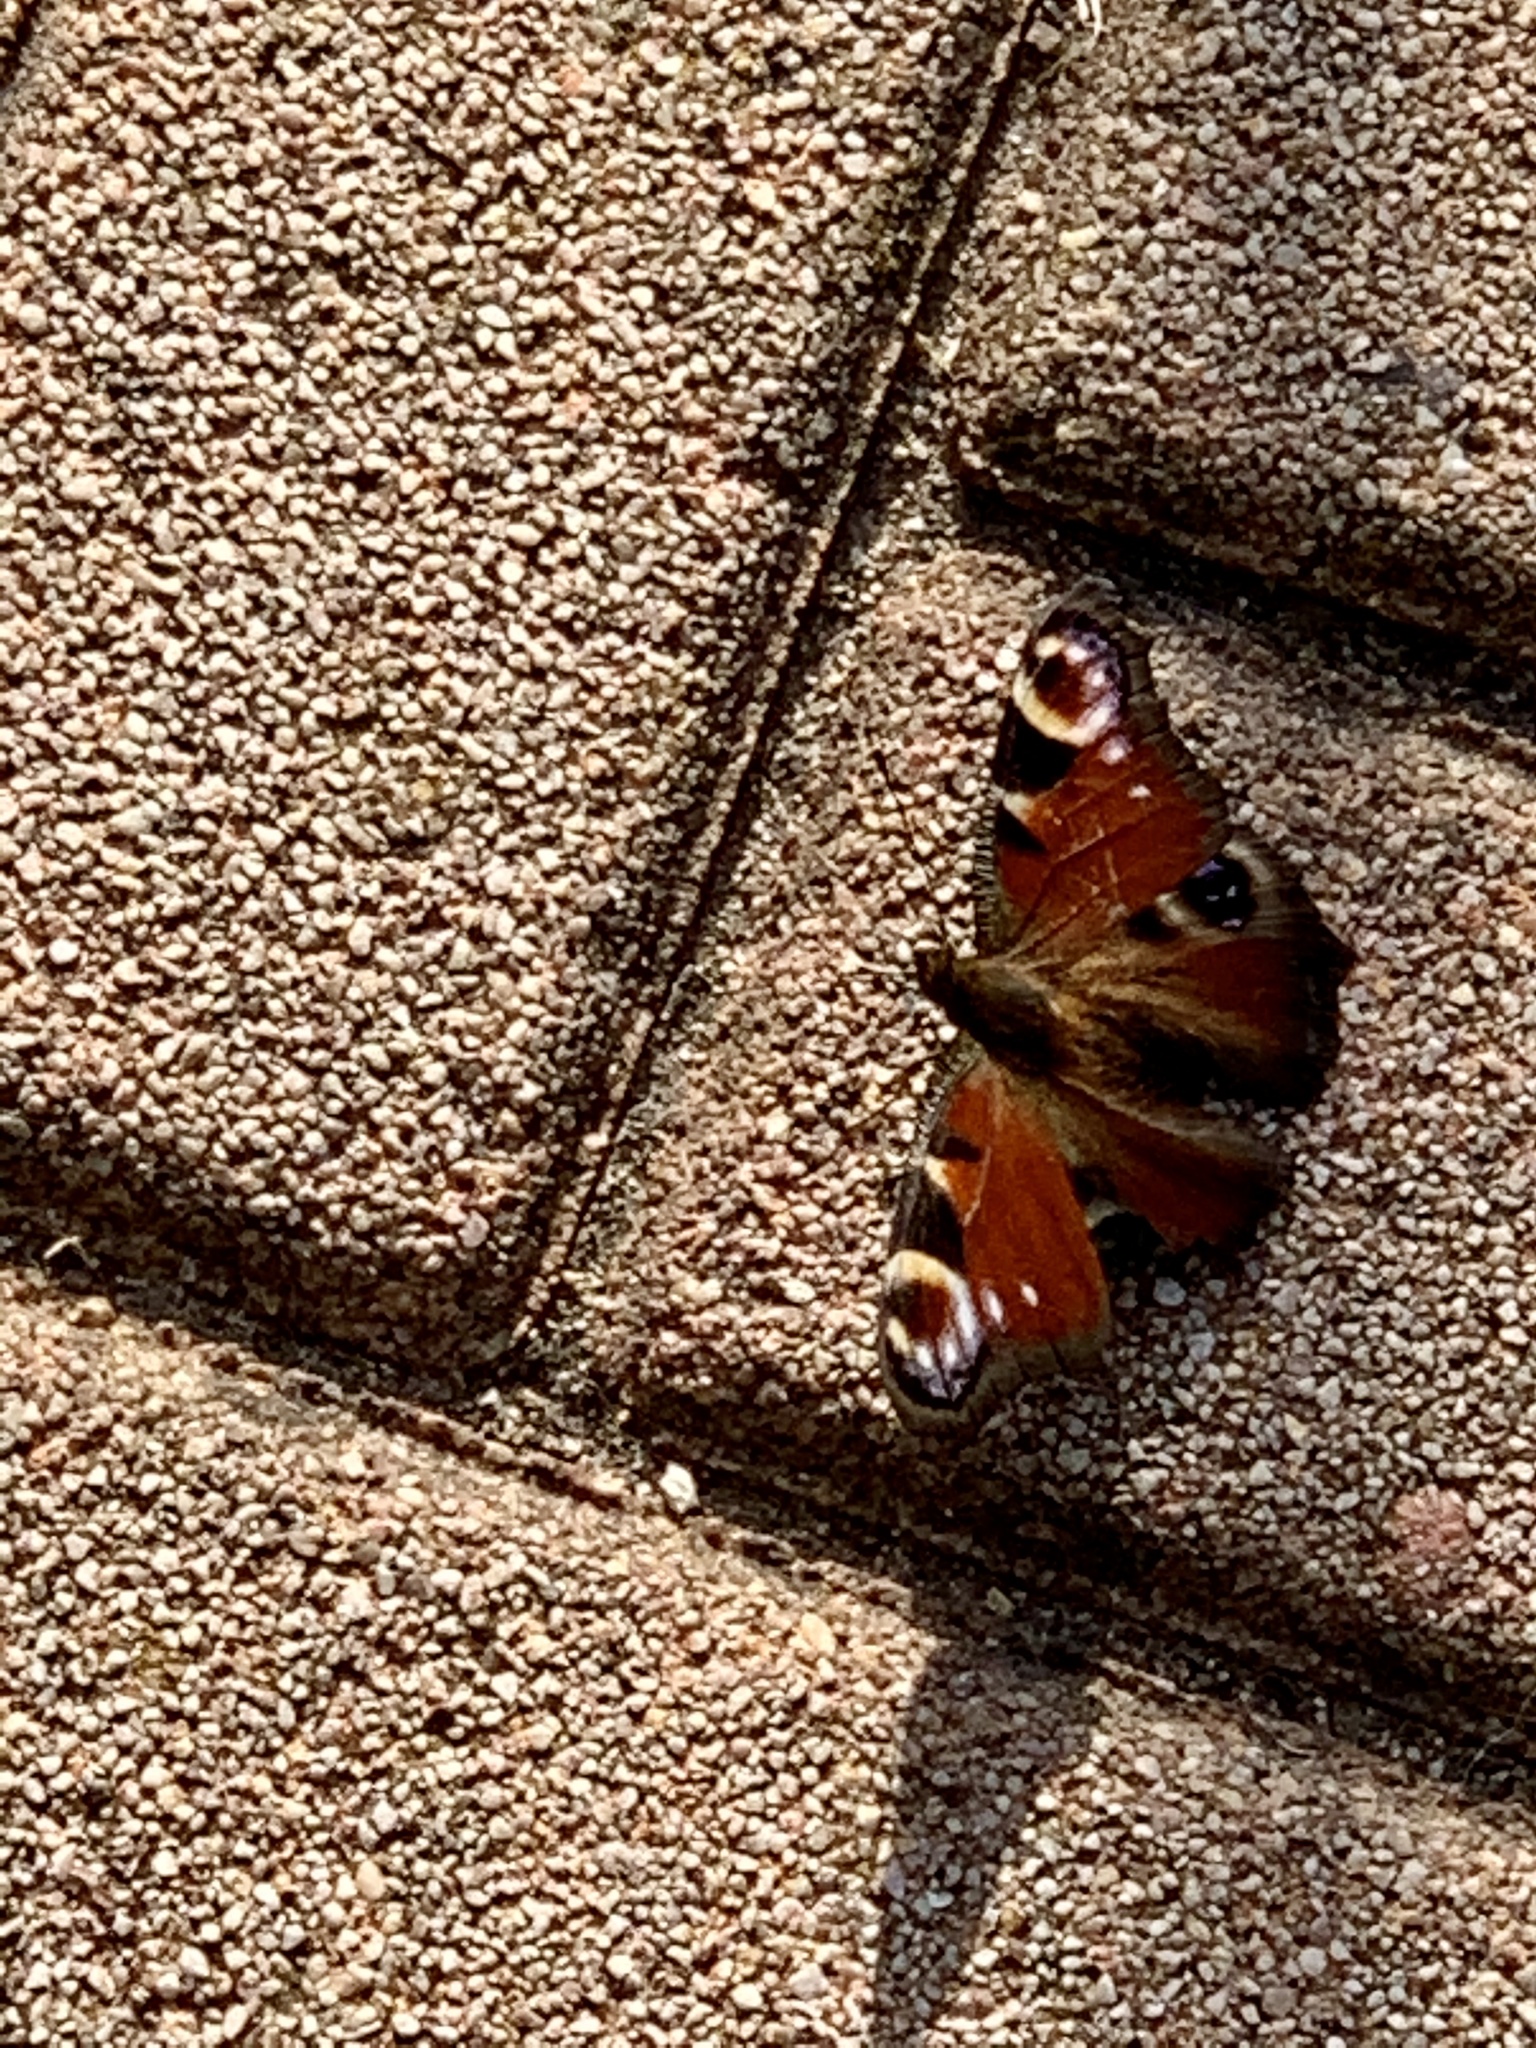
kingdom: Animalia
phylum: Arthropoda
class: Insecta
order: Lepidoptera
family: Nymphalidae
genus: Aglais
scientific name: Aglais io
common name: Peacock
